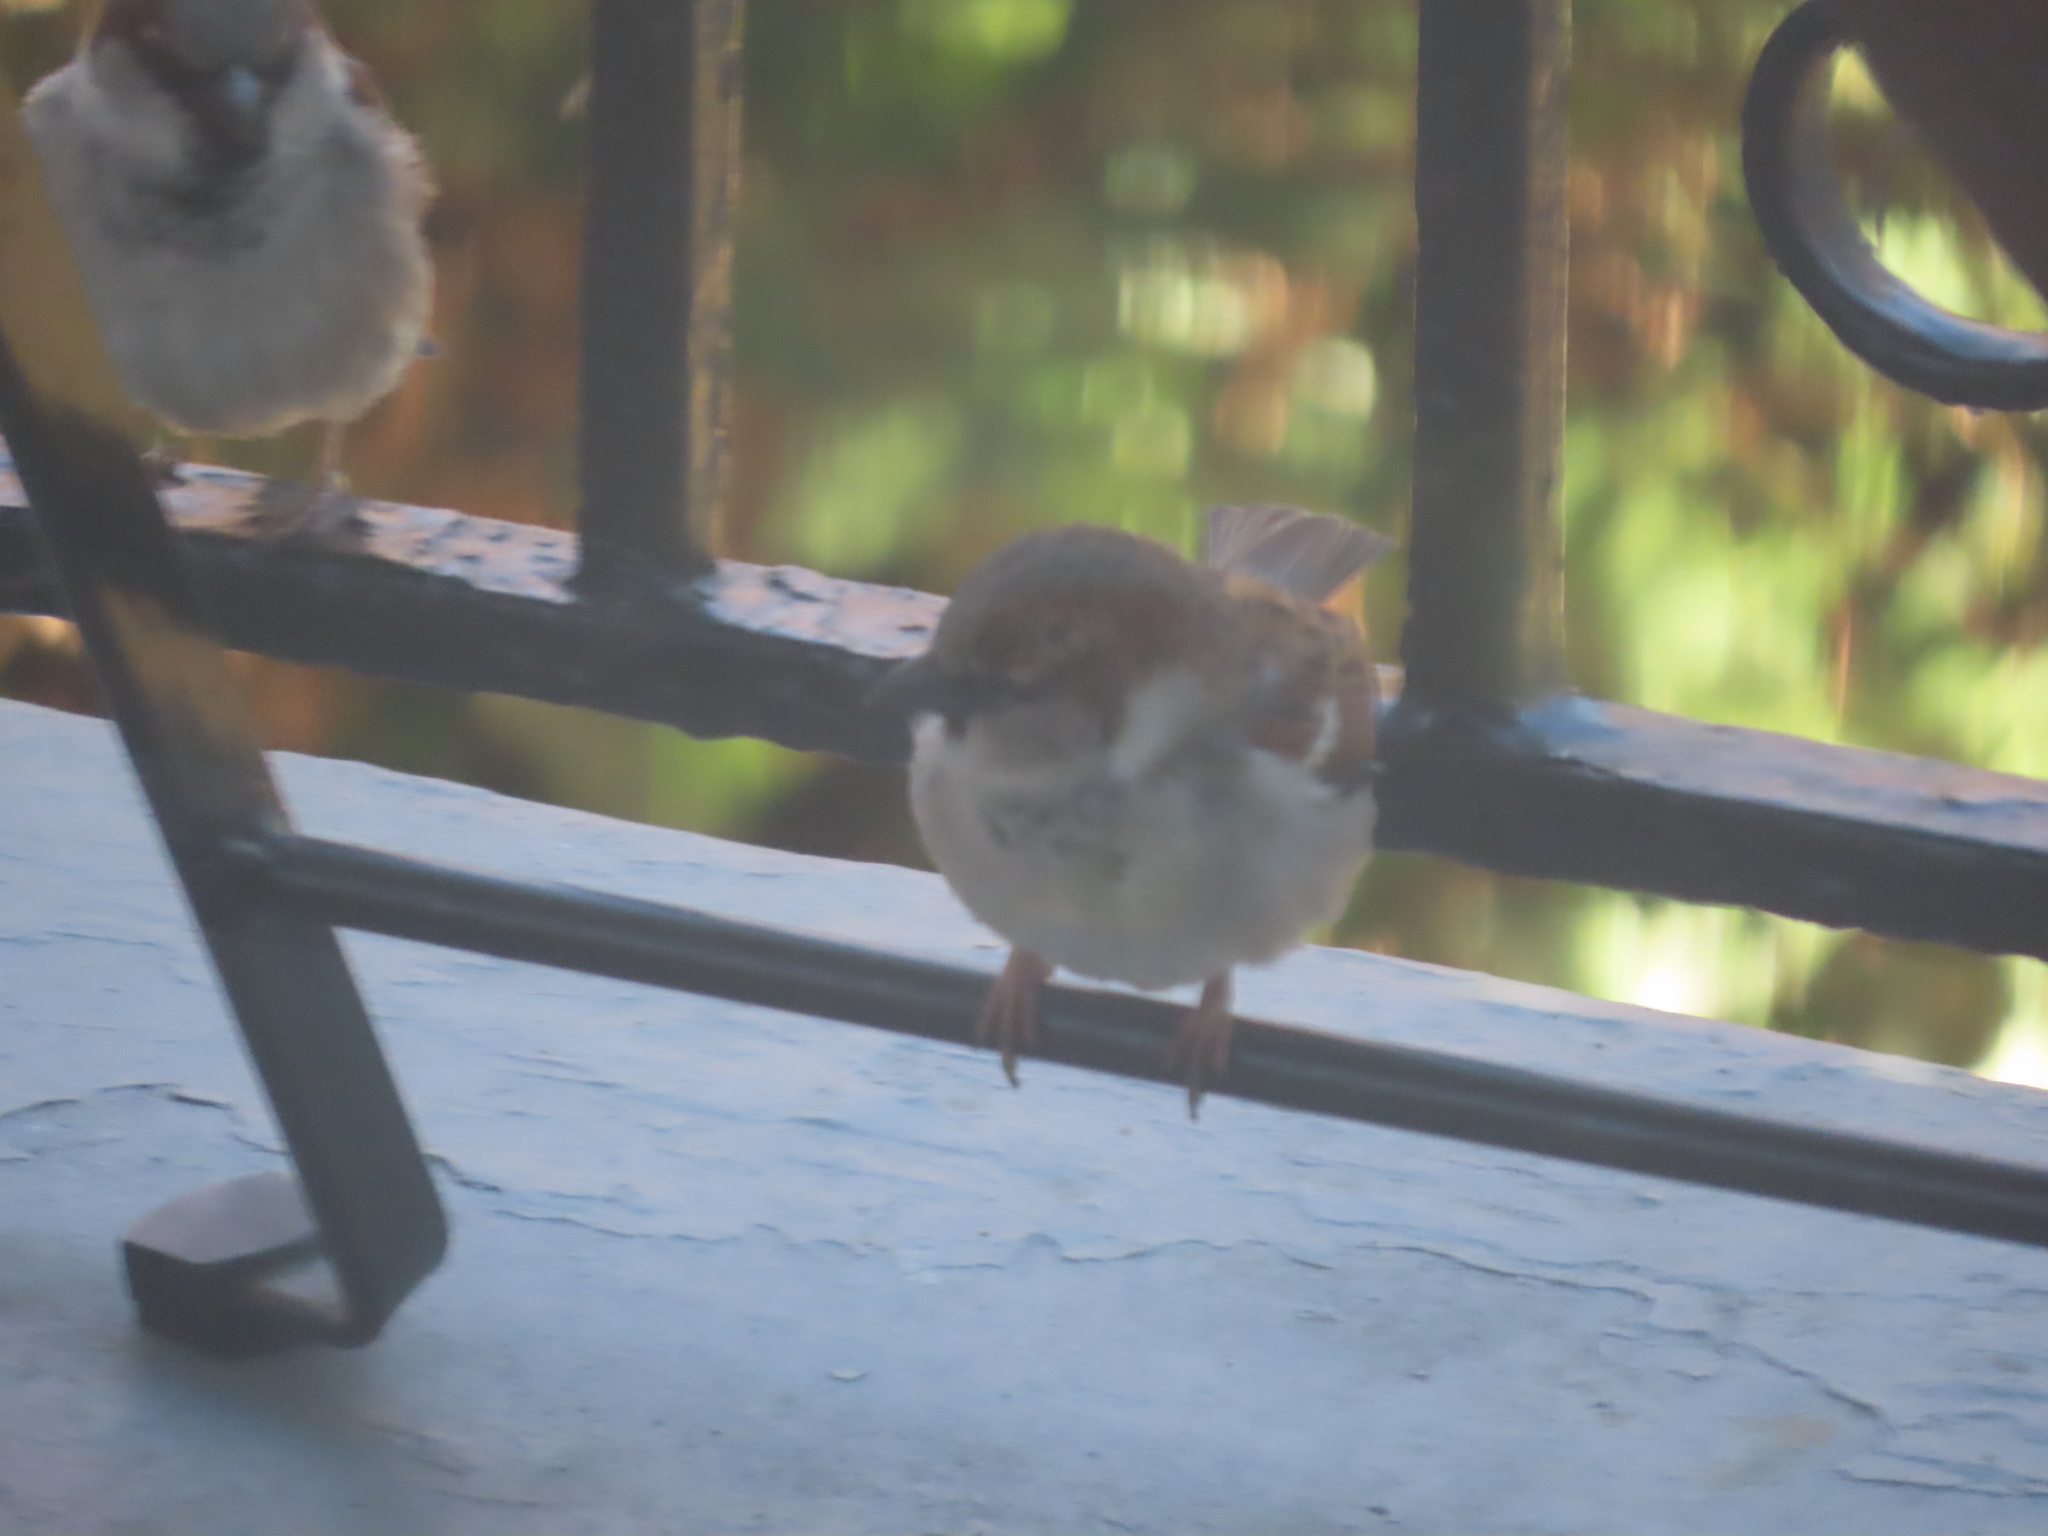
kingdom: Animalia
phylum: Chordata
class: Aves
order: Passeriformes
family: Passeridae
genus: Passer
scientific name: Passer domesticus
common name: House sparrow
